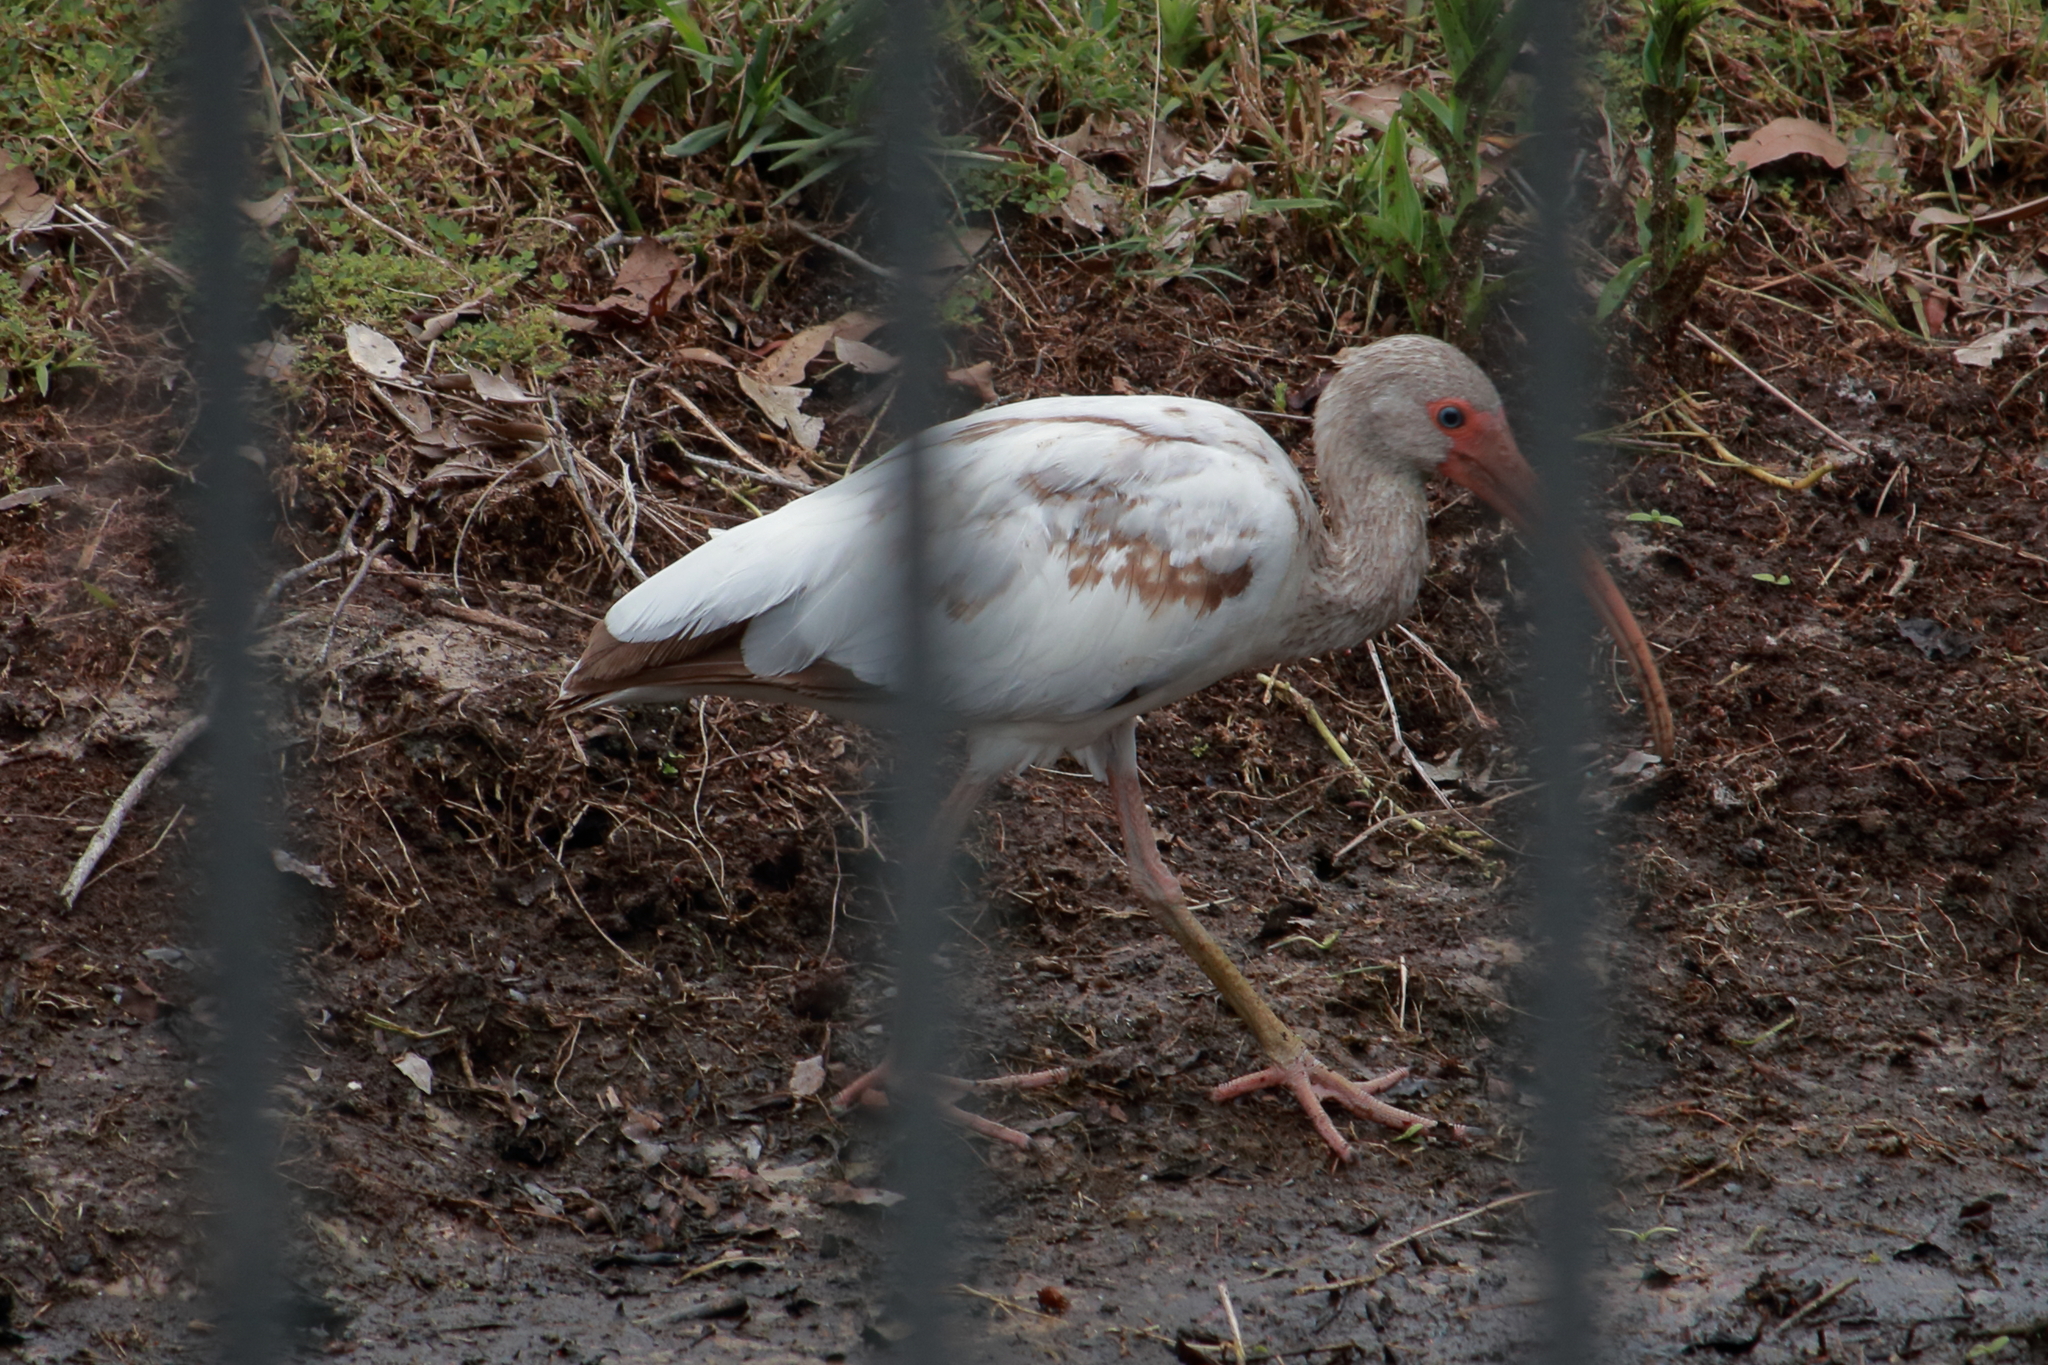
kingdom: Animalia
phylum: Chordata
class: Aves
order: Pelecaniformes
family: Threskiornithidae
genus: Eudocimus
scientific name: Eudocimus albus
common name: White ibis
